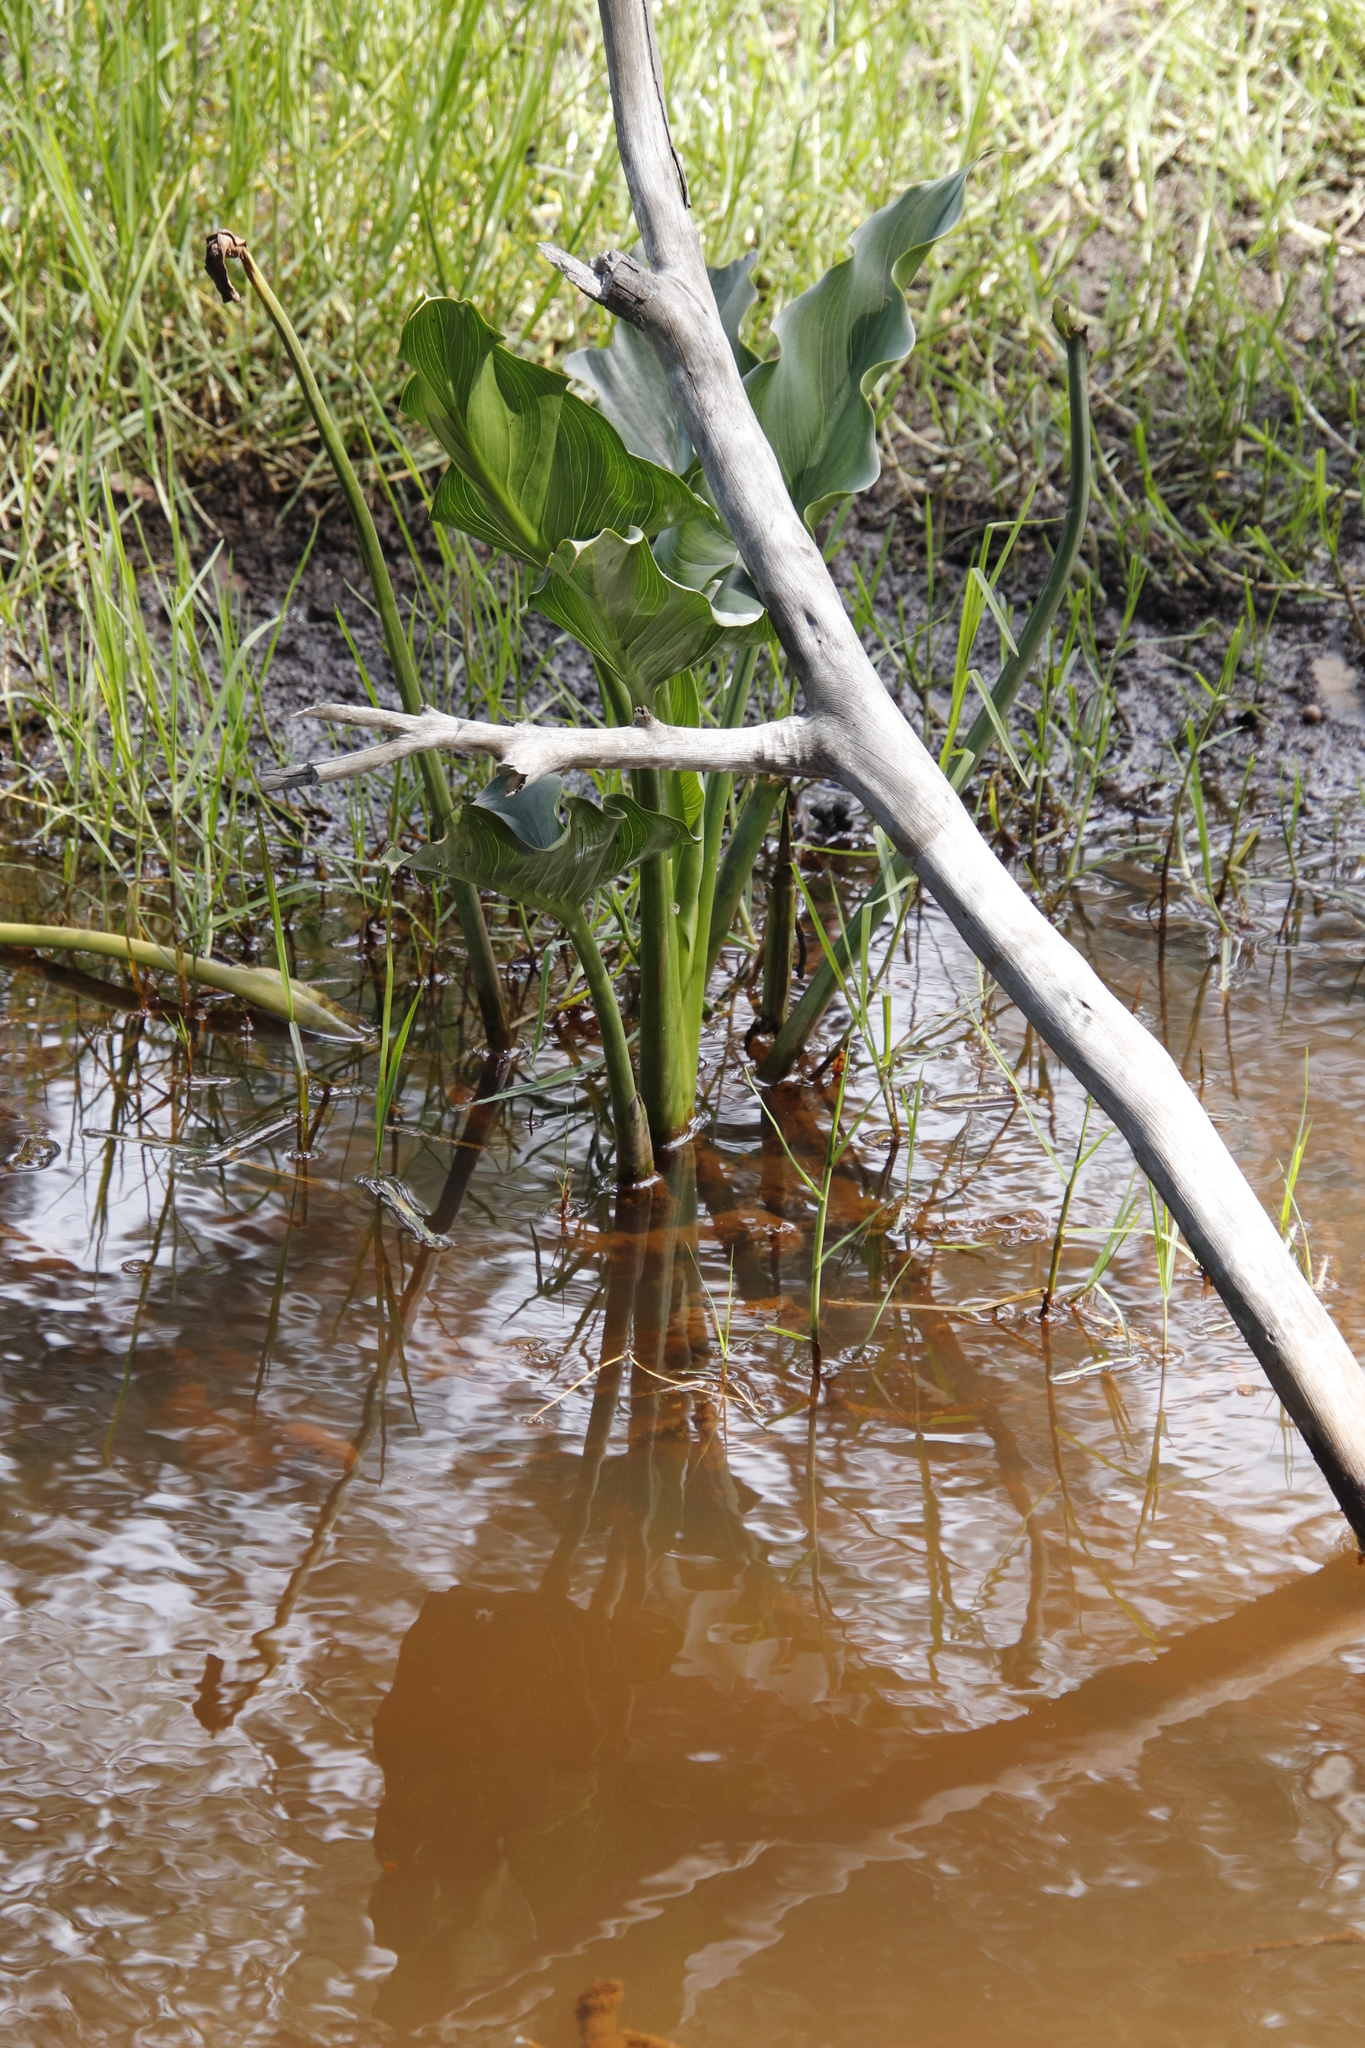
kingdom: Plantae
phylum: Tracheophyta
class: Liliopsida
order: Alismatales
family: Araceae
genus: Zantedeschia
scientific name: Zantedeschia aethiopica
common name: Altar-lily
